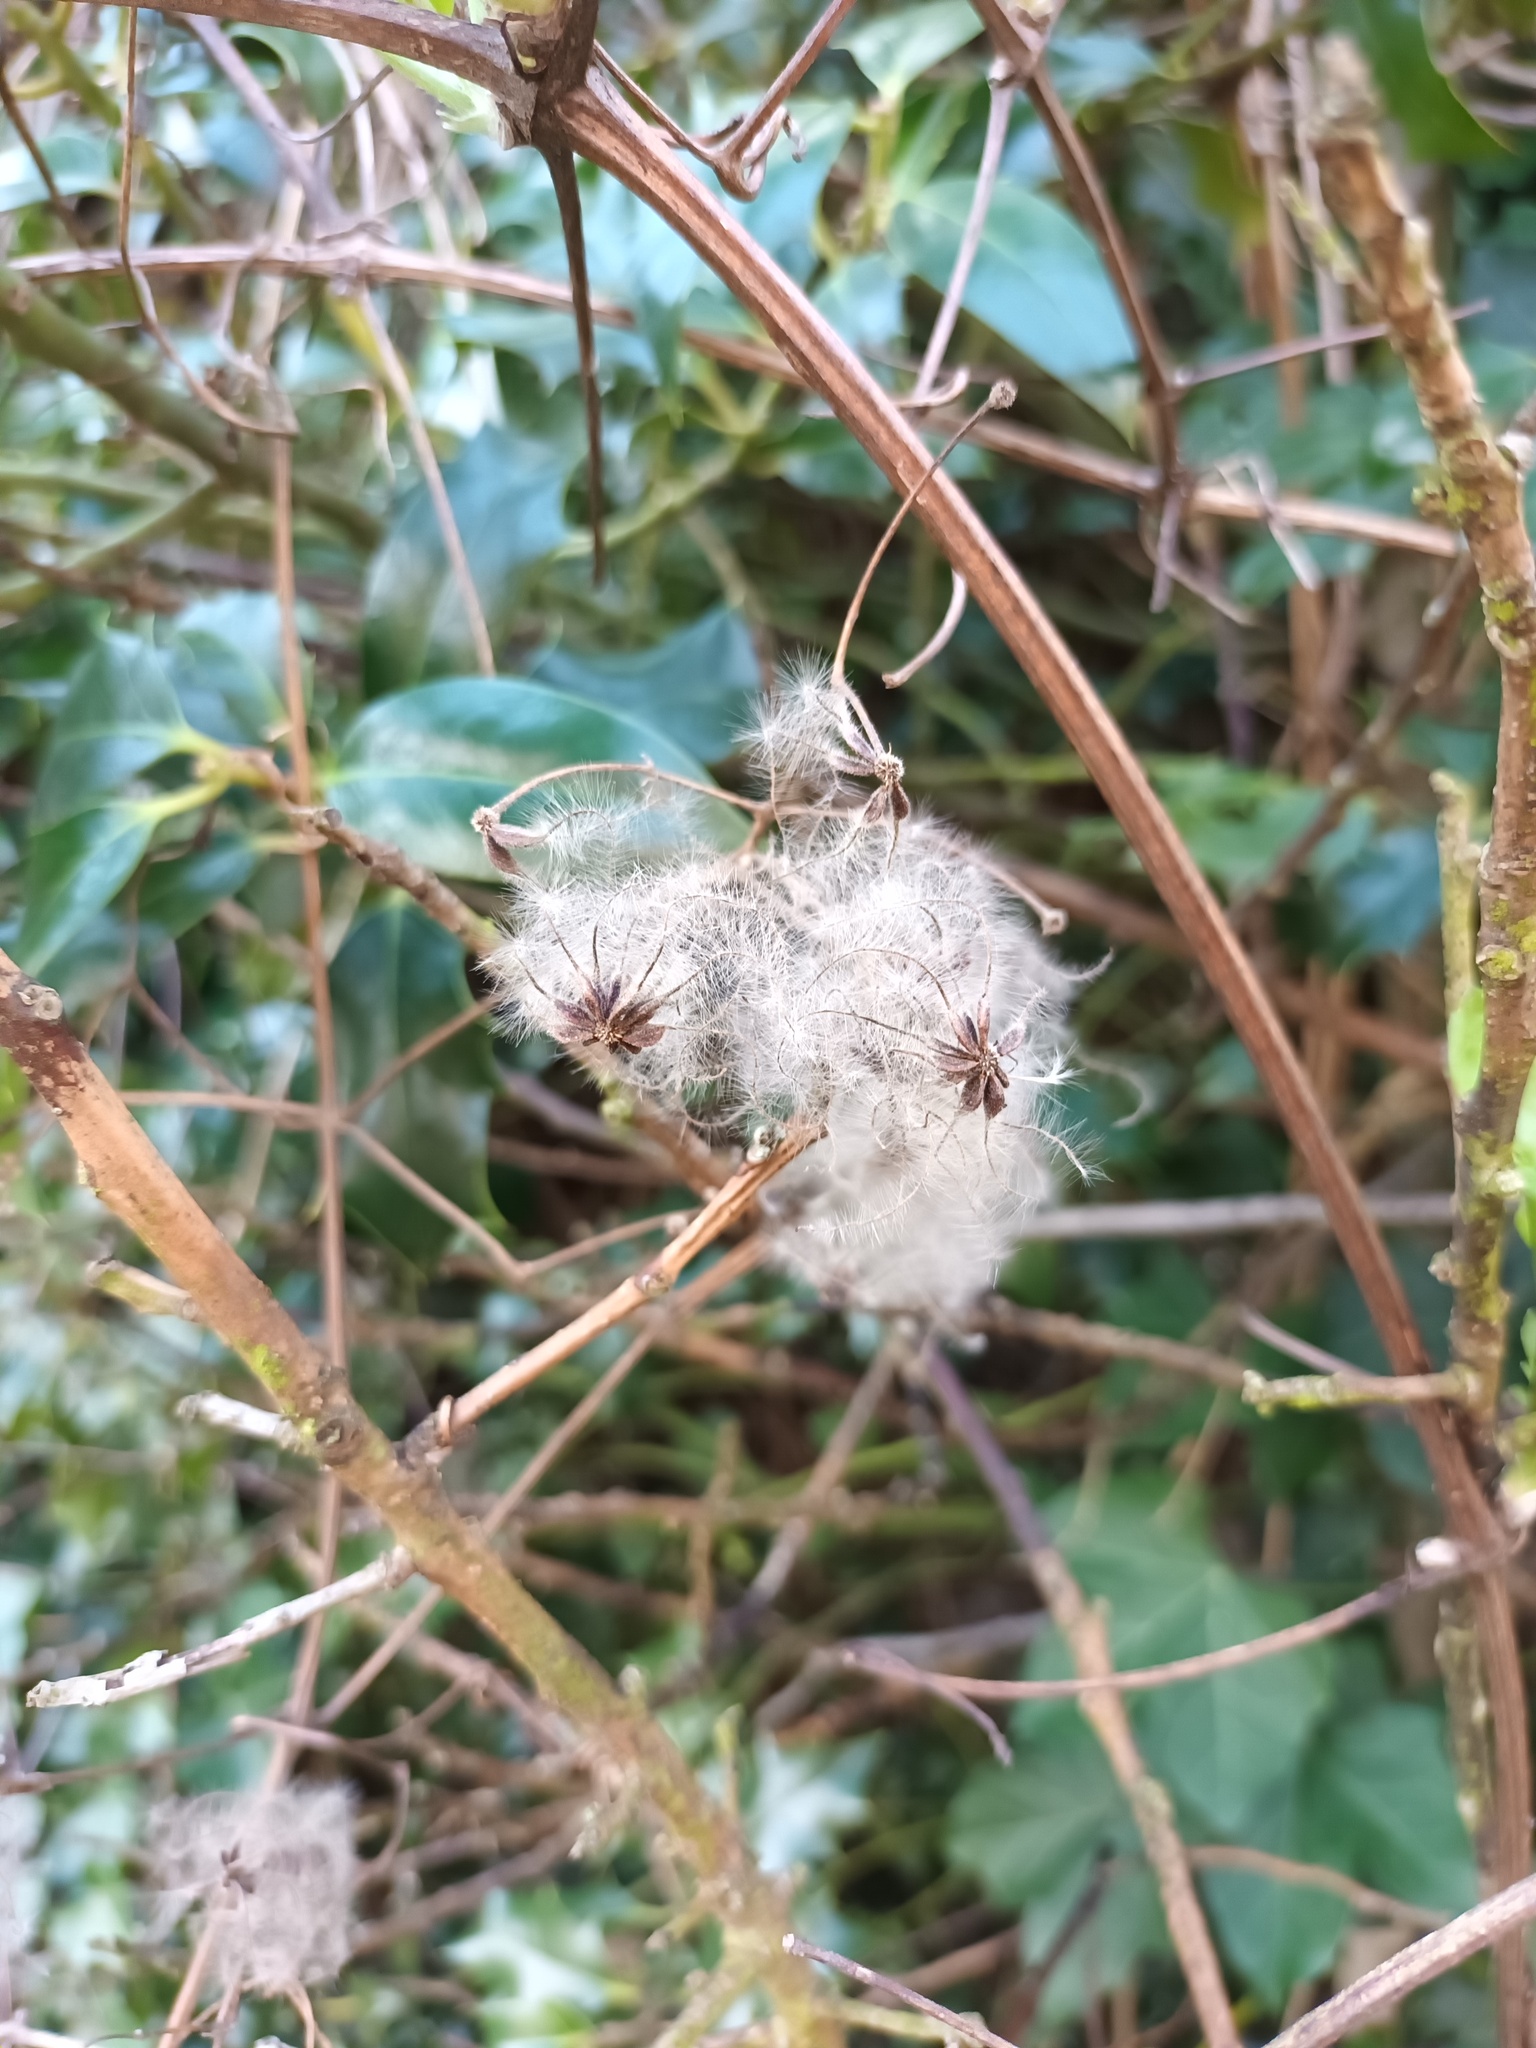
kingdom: Plantae
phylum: Tracheophyta
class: Magnoliopsida
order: Ranunculales
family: Ranunculaceae
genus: Clematis
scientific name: Clematis vitalba
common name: Evergreen clematis
